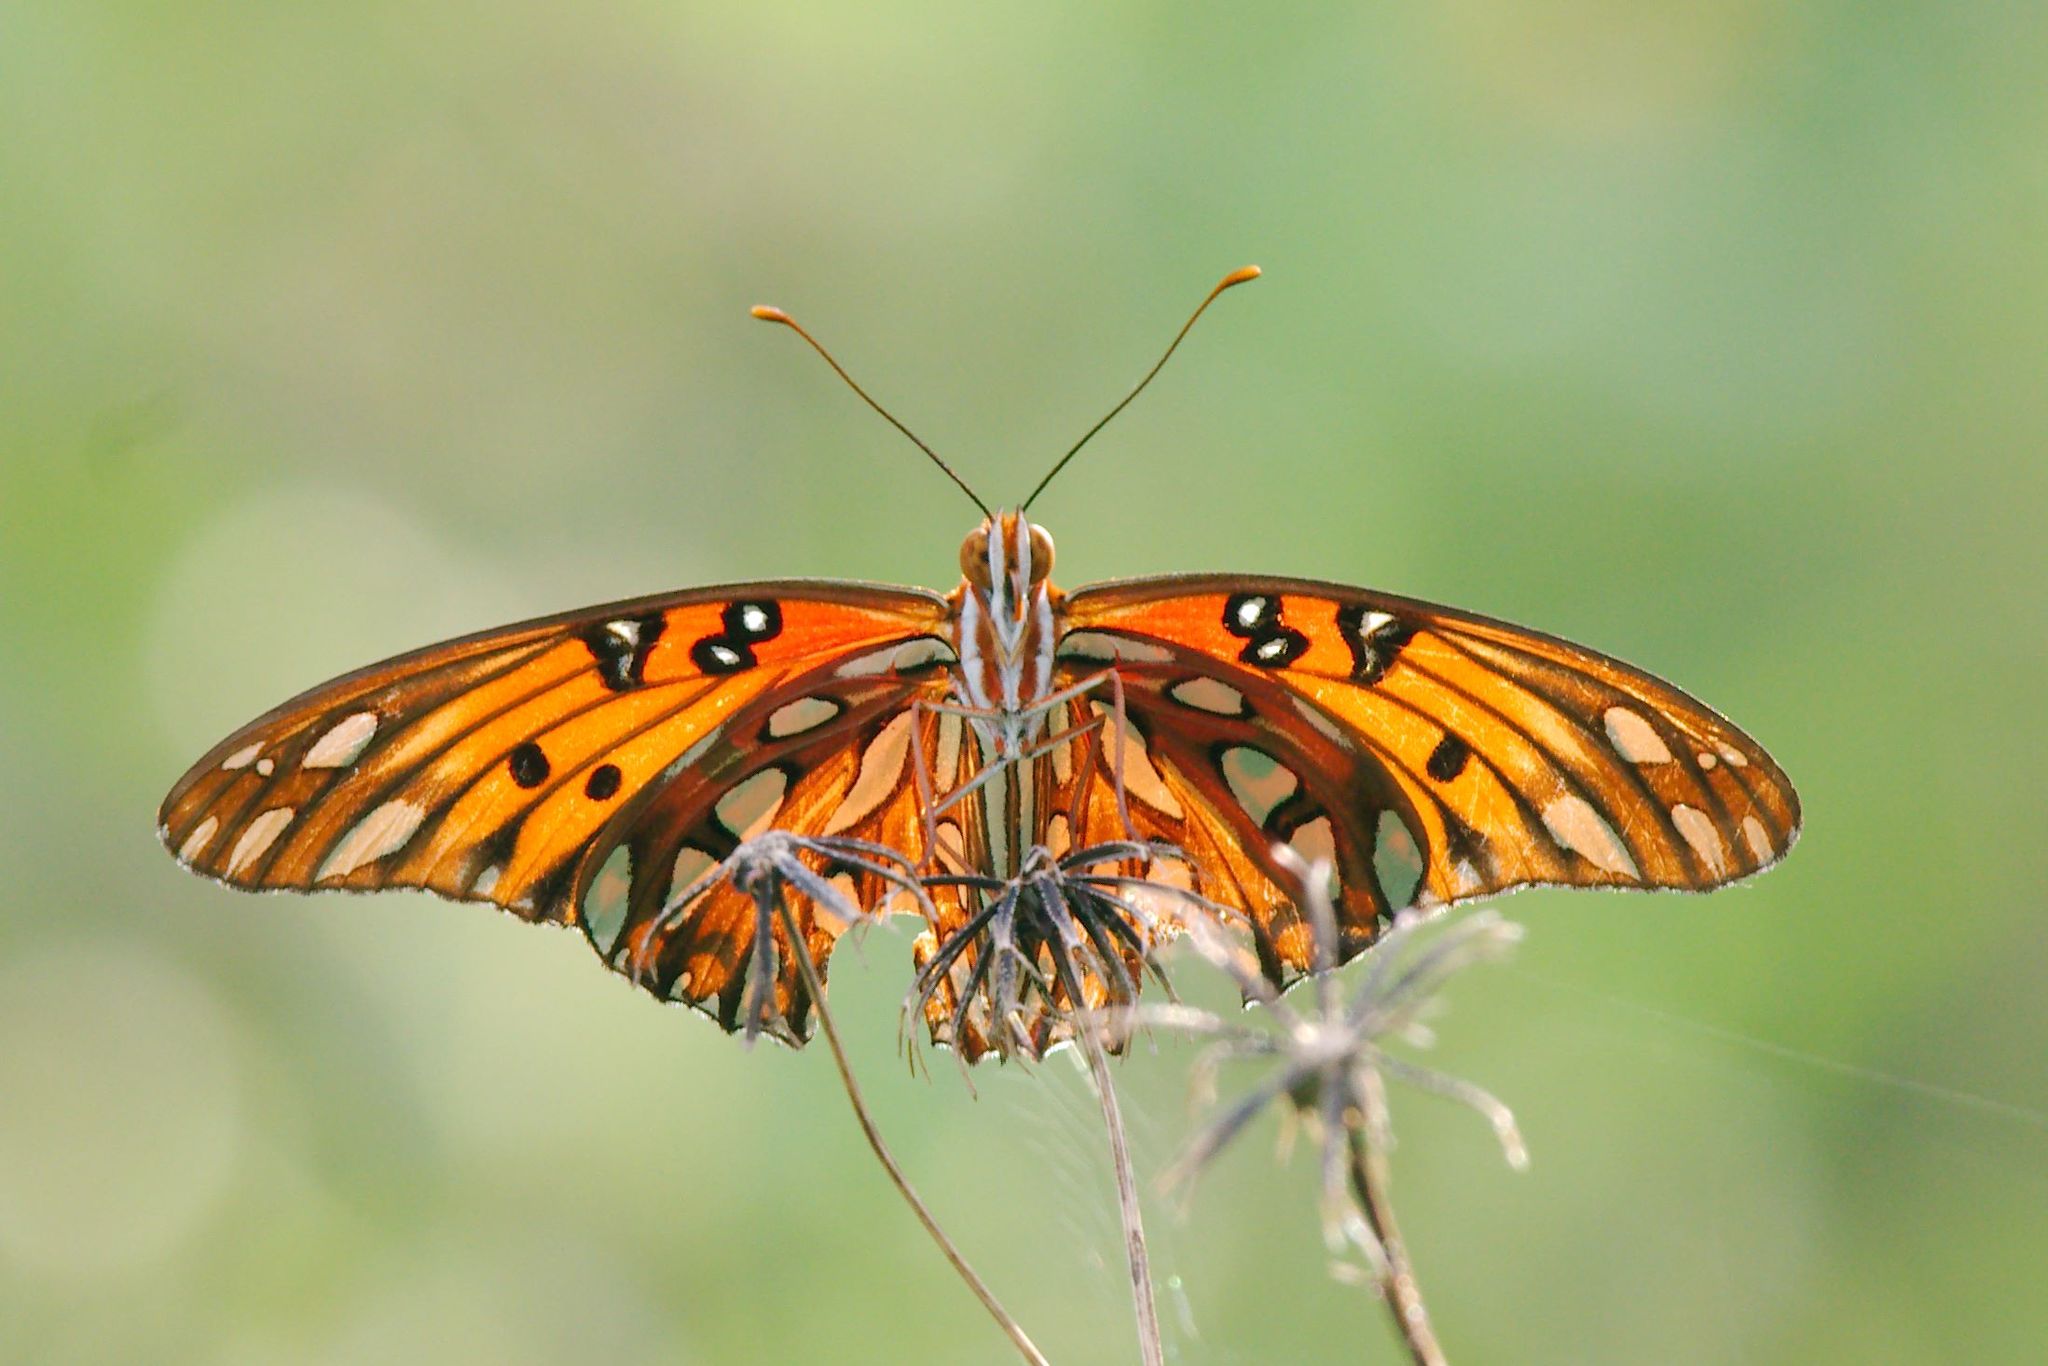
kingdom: Animalia
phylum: Arthropoda
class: Insecta
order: Lepidoptera
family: Nymphalidae
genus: Dione
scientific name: Dione vanillae
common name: Gulf fritillary
